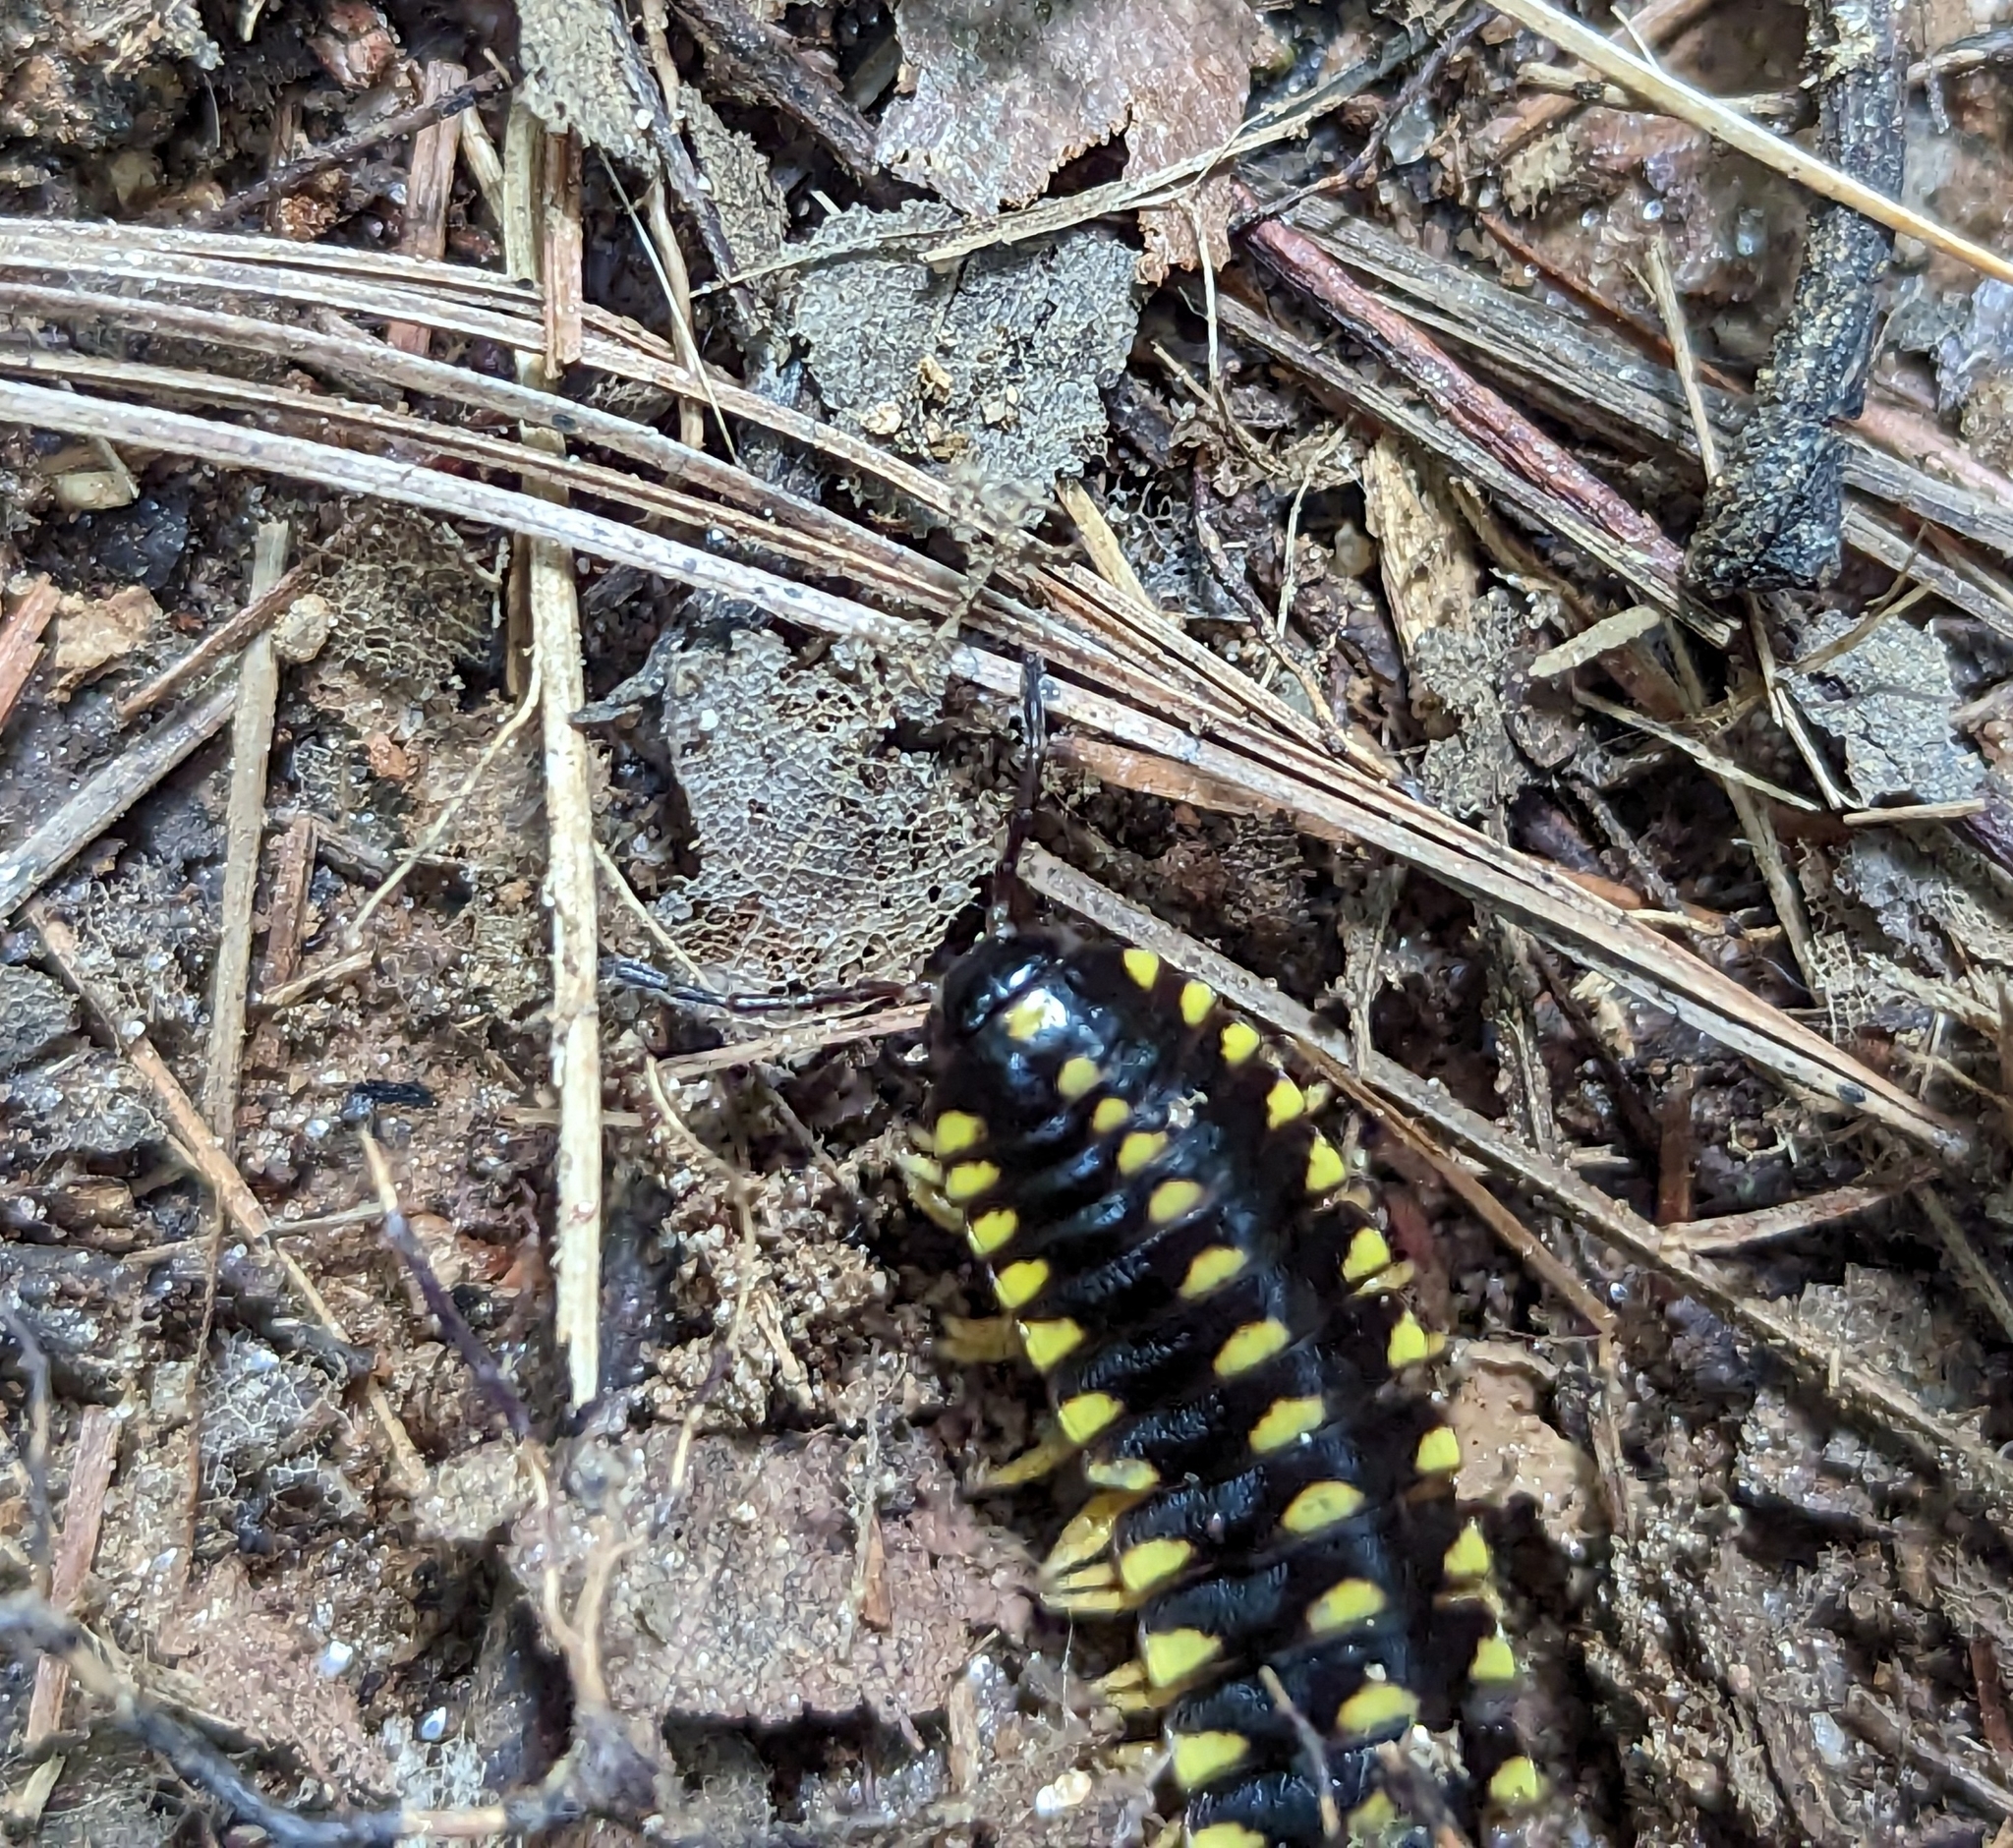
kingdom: Animalia
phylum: Arthropoda
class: Diplopoda
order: Polydesmida
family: Xystodesmidae
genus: Cherokia
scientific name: Cherokia georgiana
